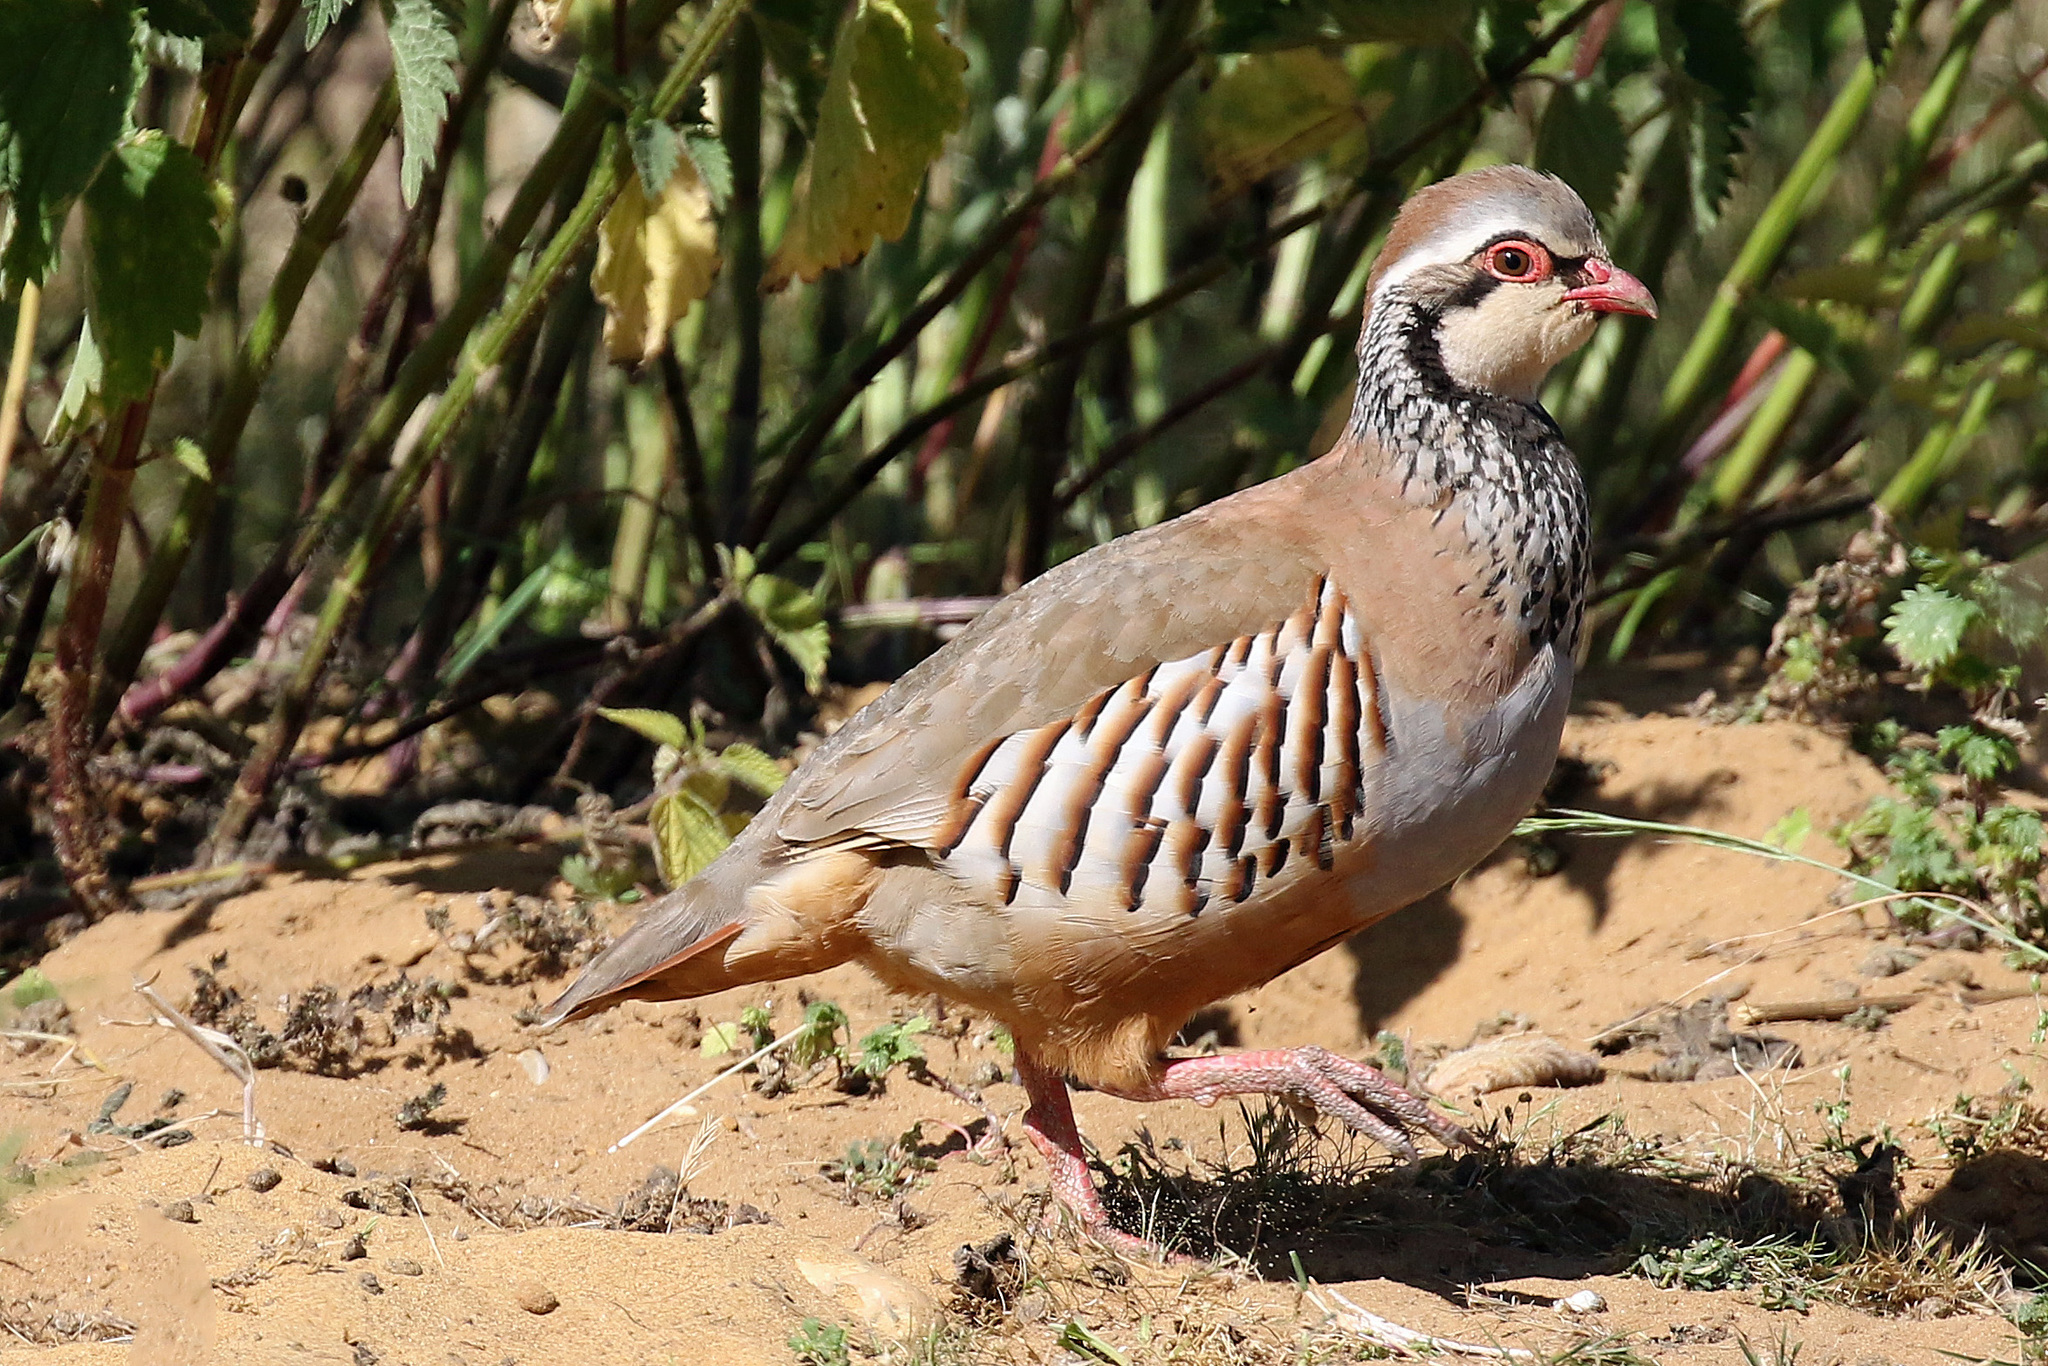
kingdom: Animalia
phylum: Chordata
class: Aves
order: Galliformes
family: Phasianidae
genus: Alectoris
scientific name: Alectoris rufa
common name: Red-legged partridge
